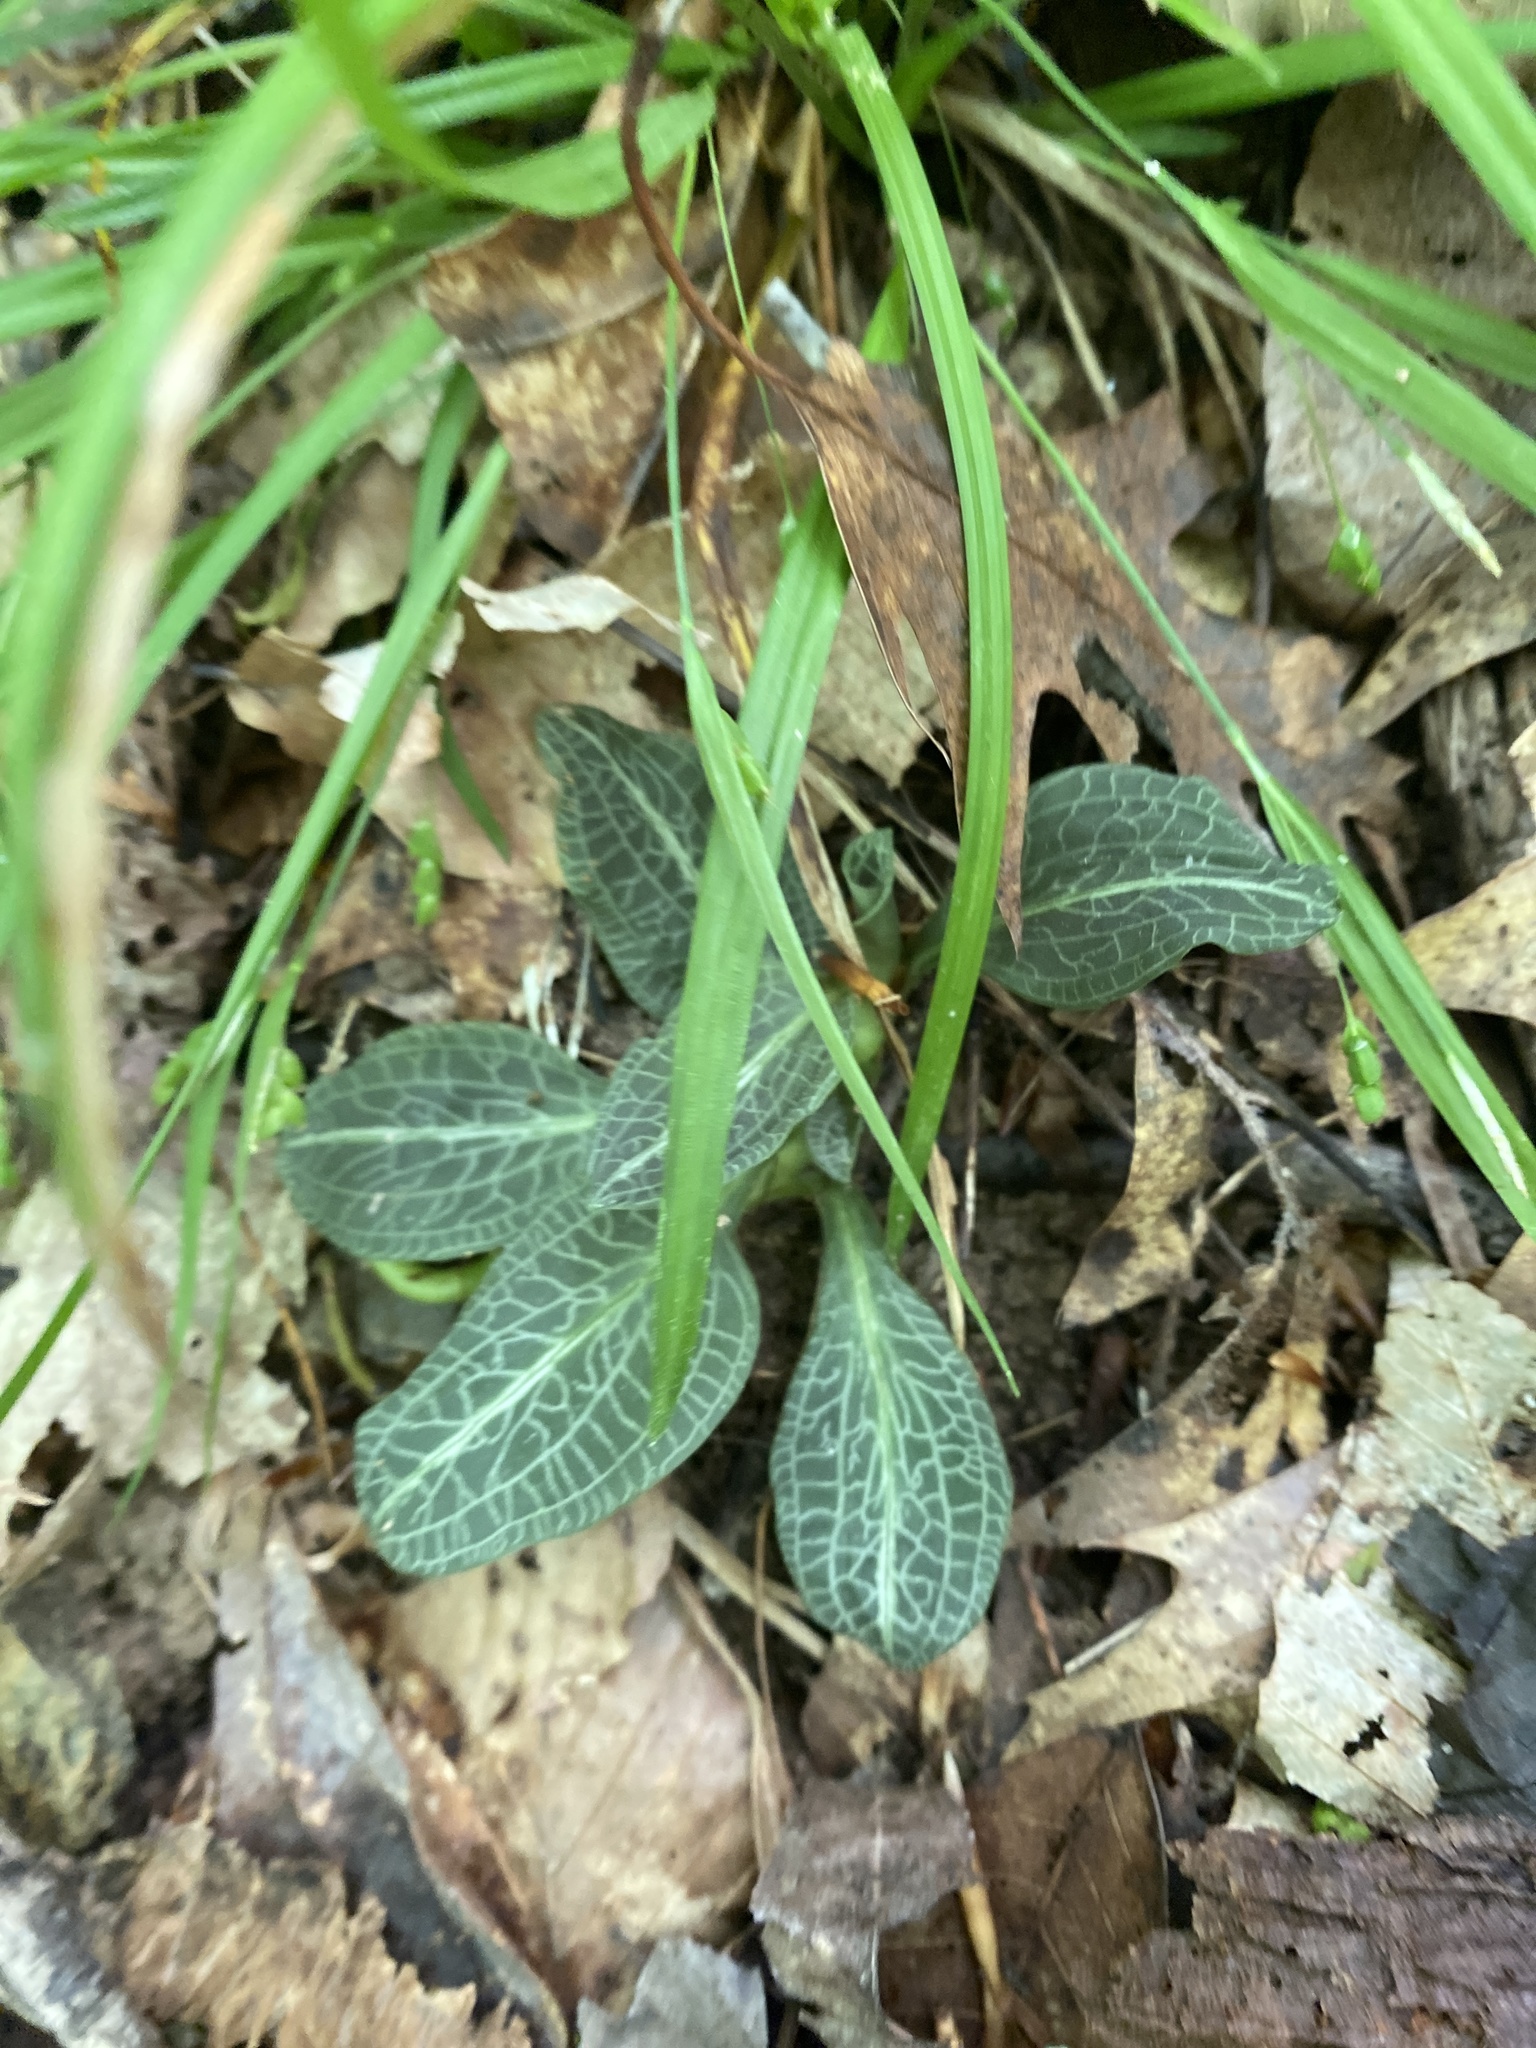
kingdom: Plantae
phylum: Tracheophyta
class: Liliopsida
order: Asparagales
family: Orchidaceae
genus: Goodyera
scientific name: Goodyera pubescens
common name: Downy rattlesnake-plantain
